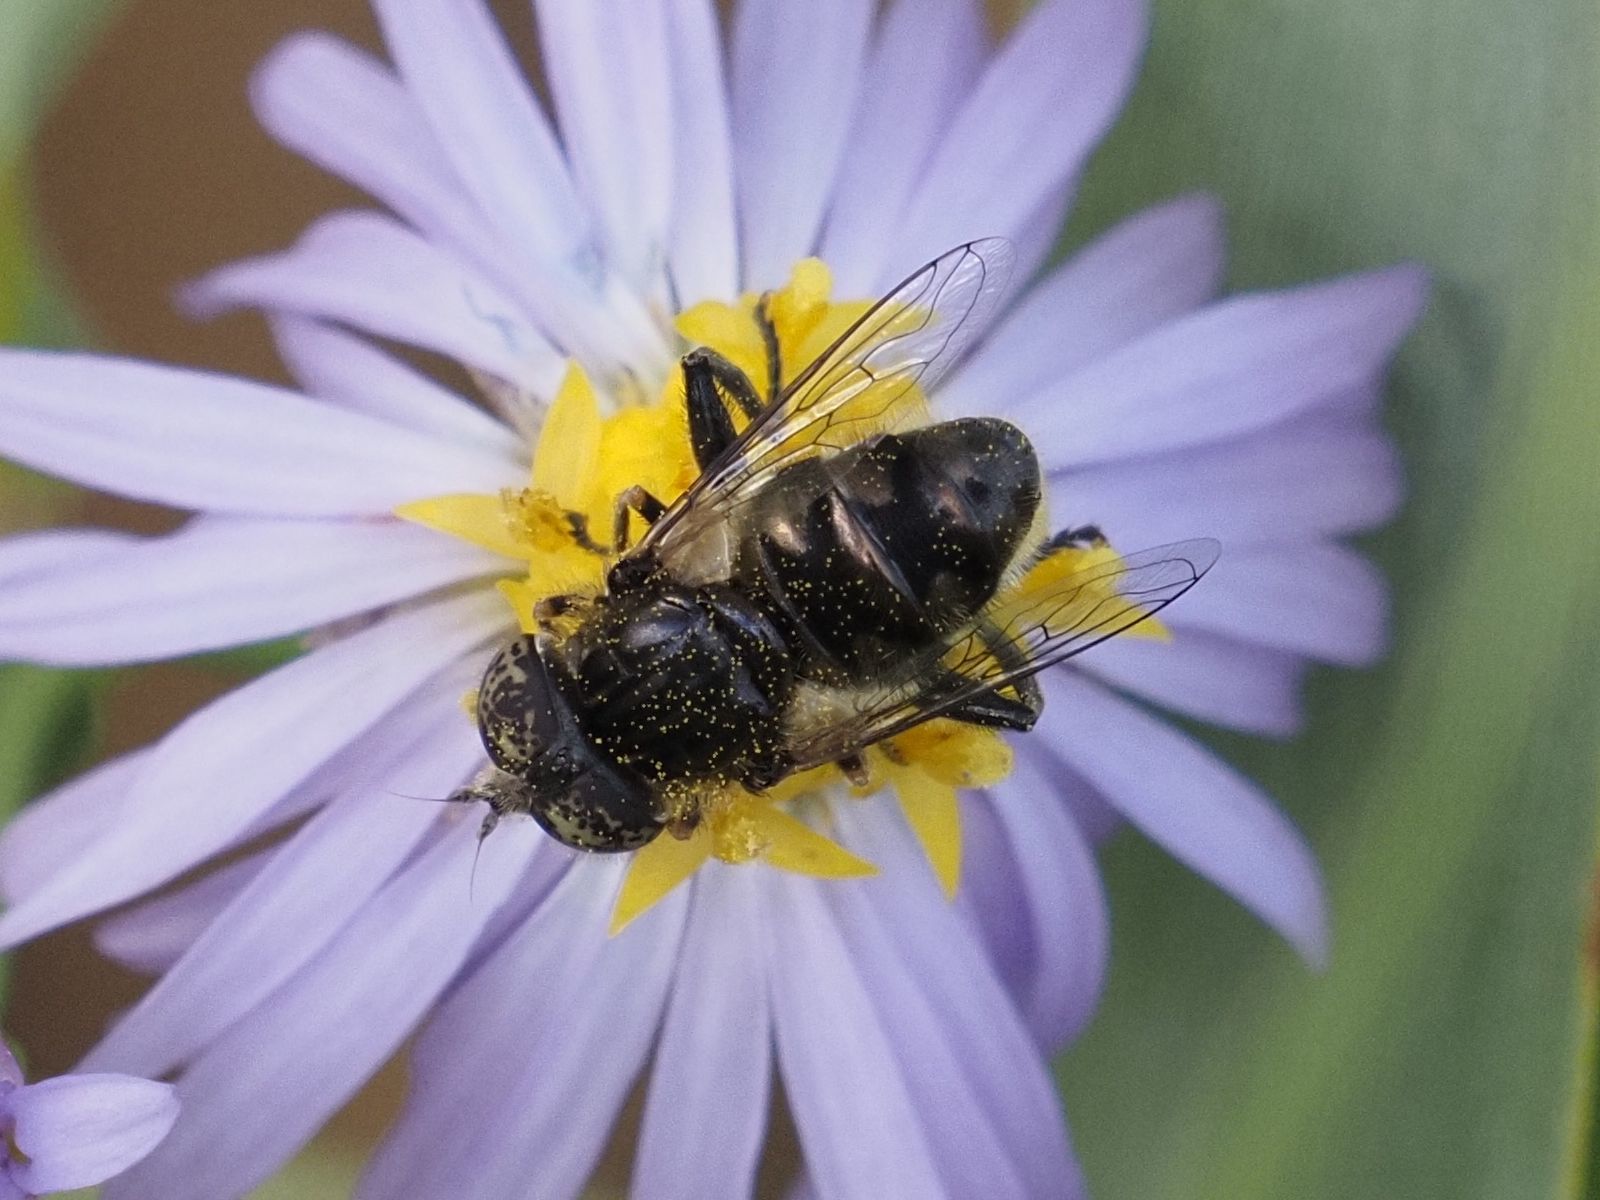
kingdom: Animalia
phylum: Arthropoda
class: Insecta
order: Diptera
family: Syrphidae
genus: Eristalinus
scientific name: Eristalinus sepulchralis
